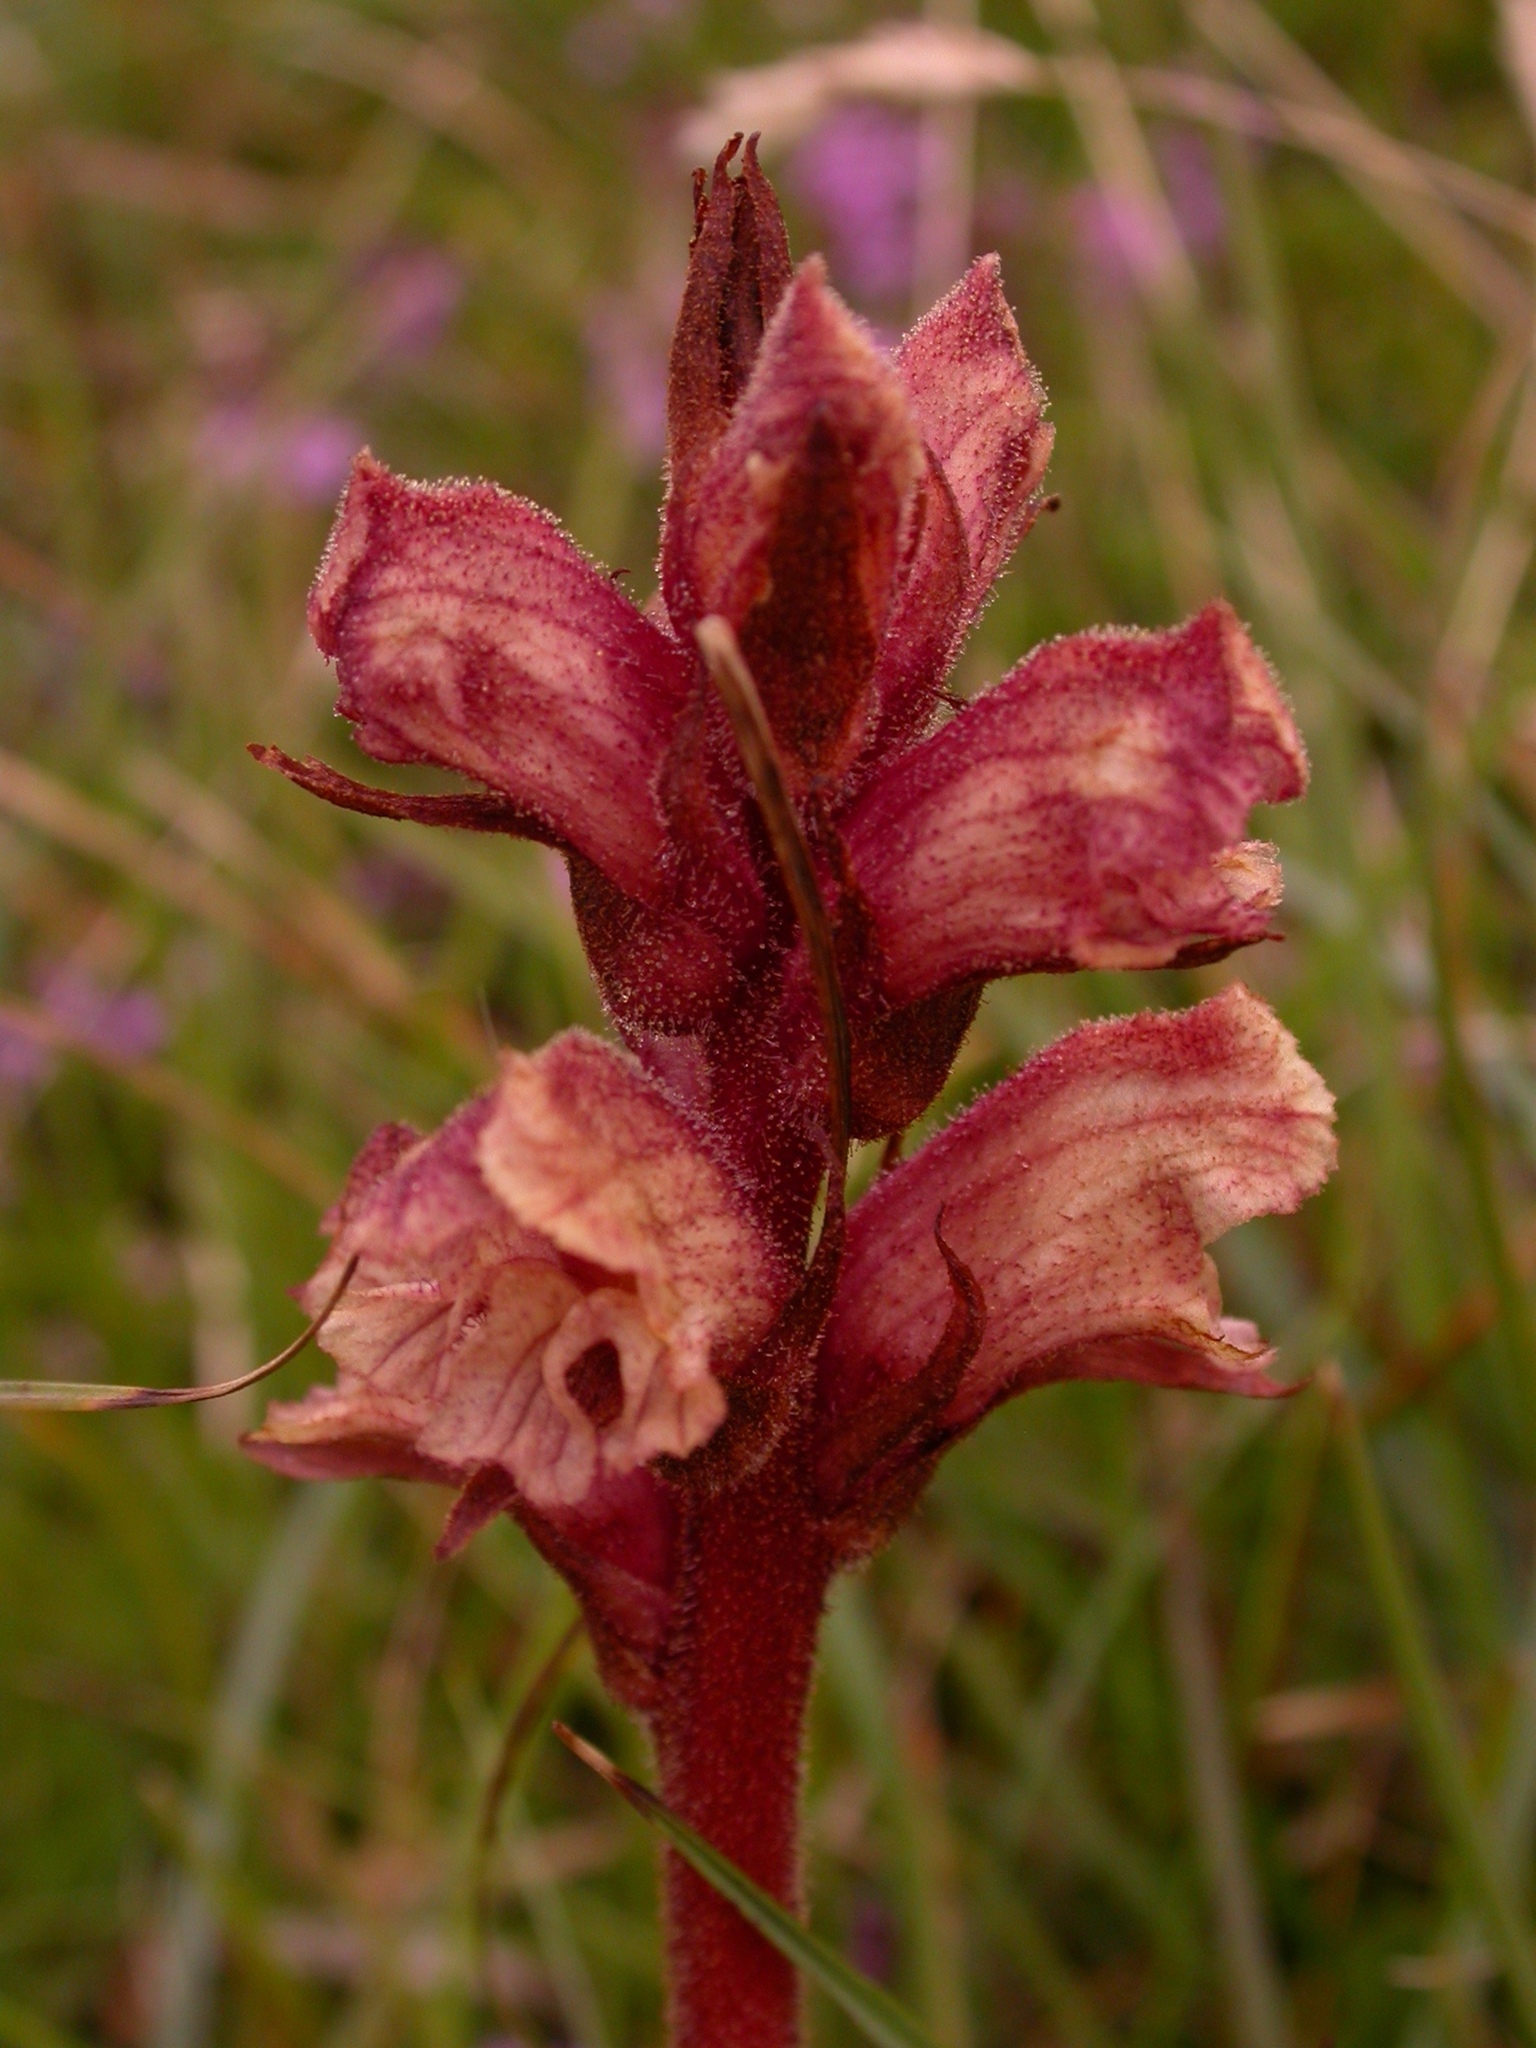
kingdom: Plantae
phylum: Tracheophyta
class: Magnoliopsida
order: Lamiales
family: Orobanchaceae
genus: Orobanche
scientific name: Orobanche alba
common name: Thyme broomrape
